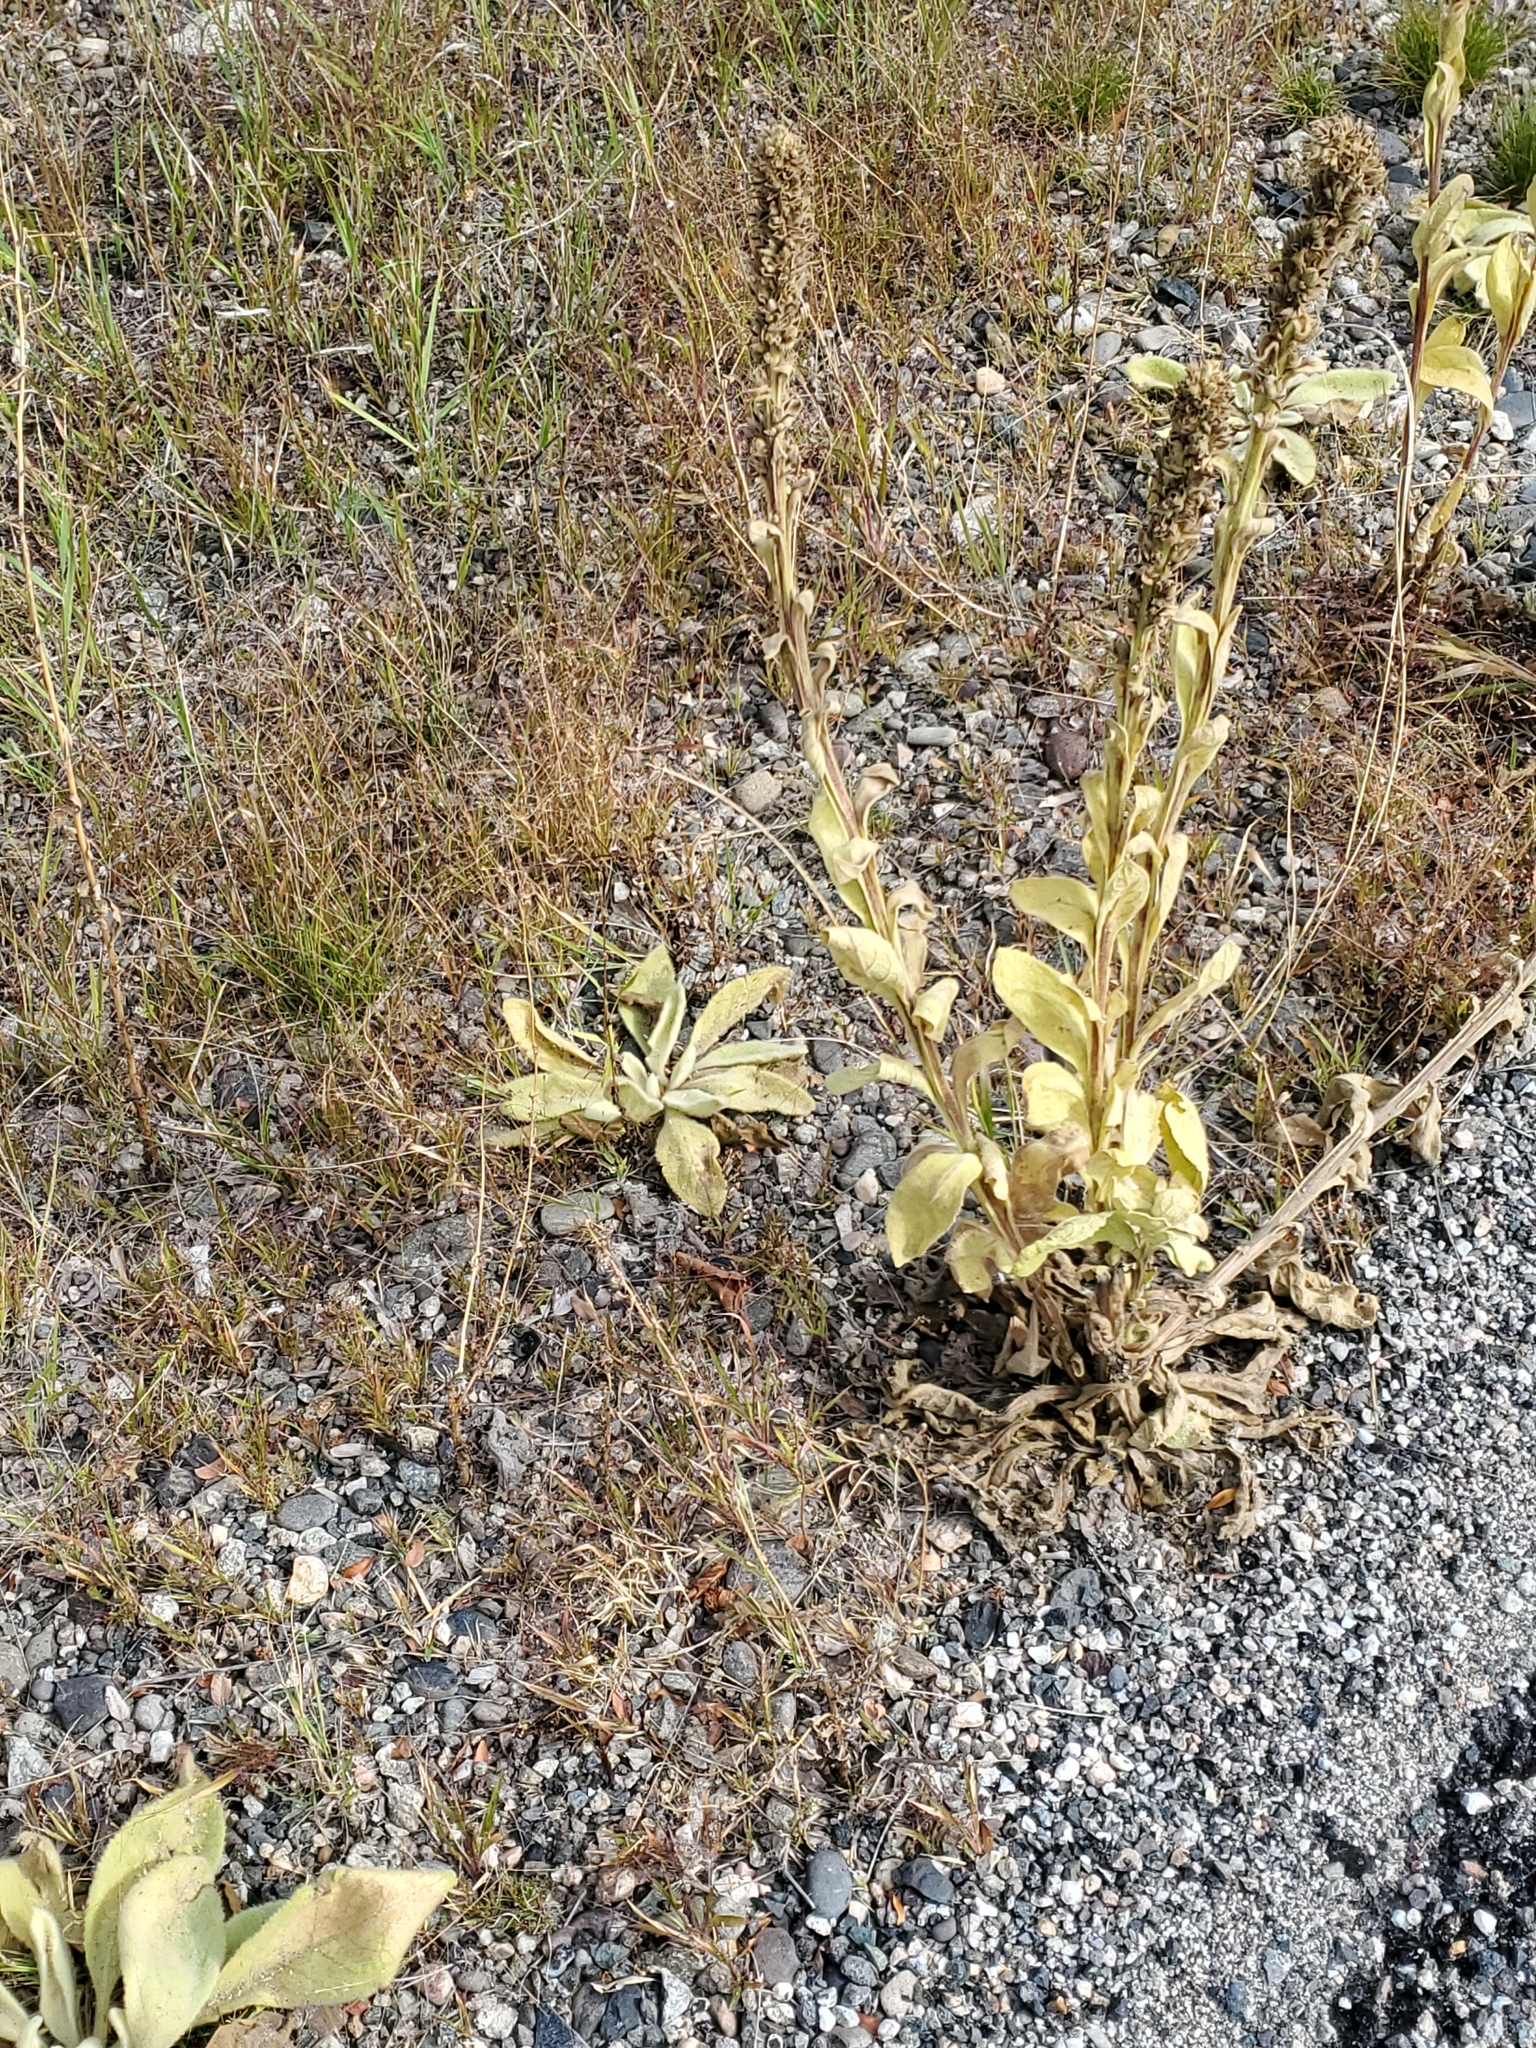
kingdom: Plantae
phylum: Tracheophyta
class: Magnoliopsida
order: Lamiales
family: Scrophulariaceae
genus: Verbascum
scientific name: Verbascum thapsus
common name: Common mullein
